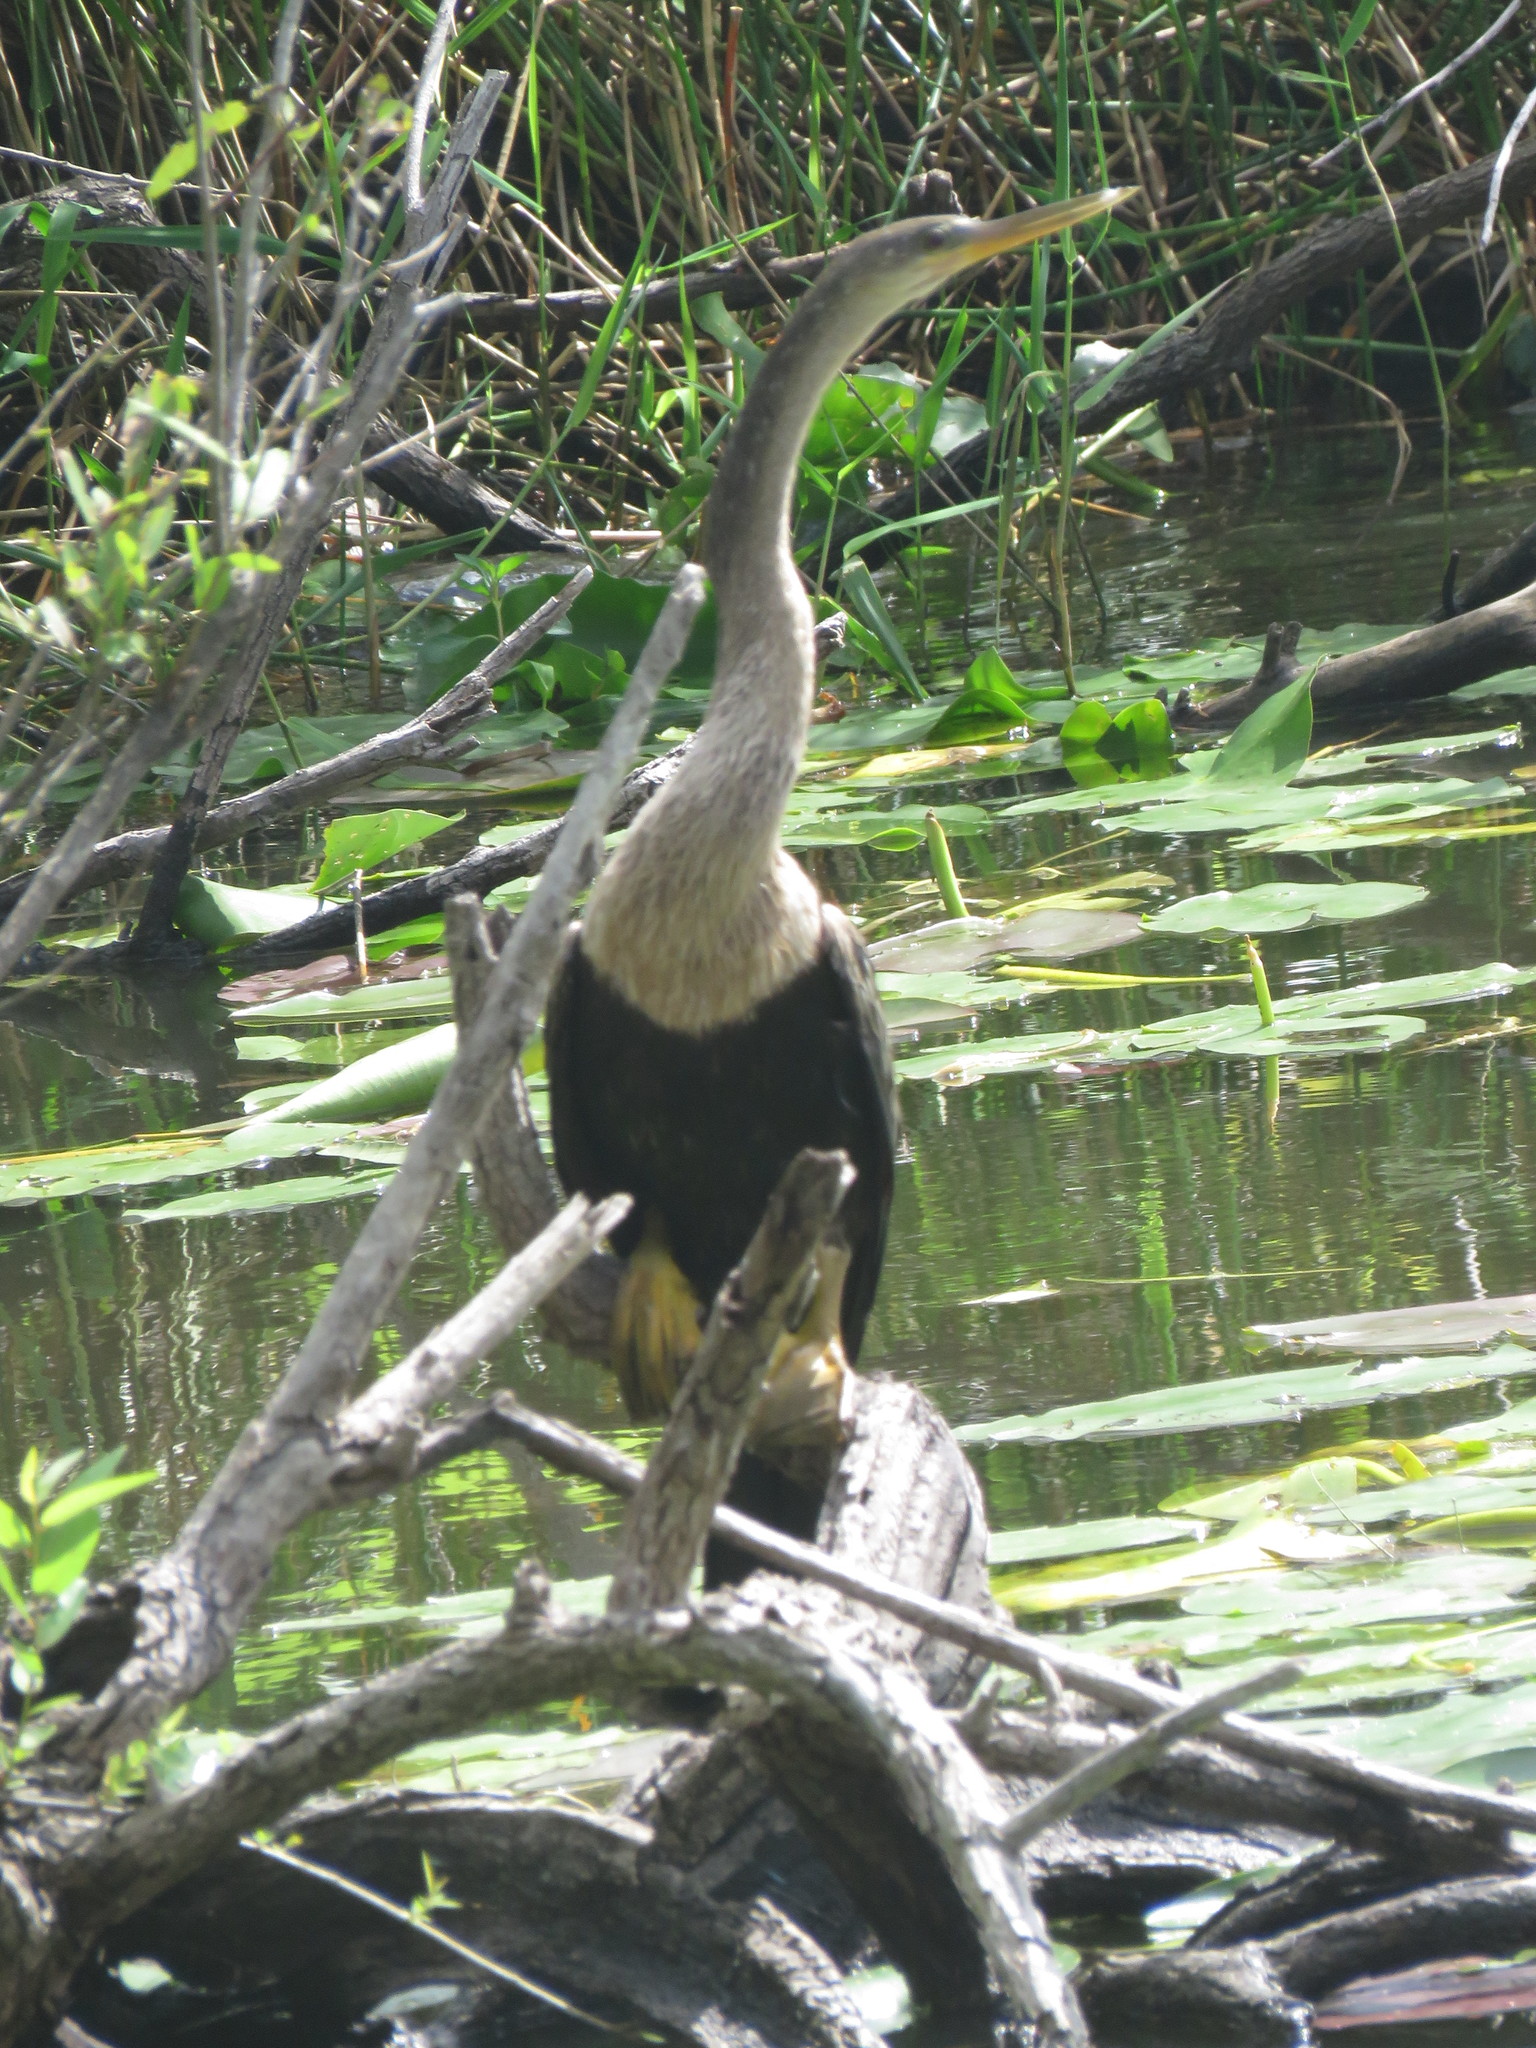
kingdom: Animalia
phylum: Chordata
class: Aves
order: Suliformes
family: Anhingidae
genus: Anhinga
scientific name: Anhinga anhinga
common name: Anhinga
